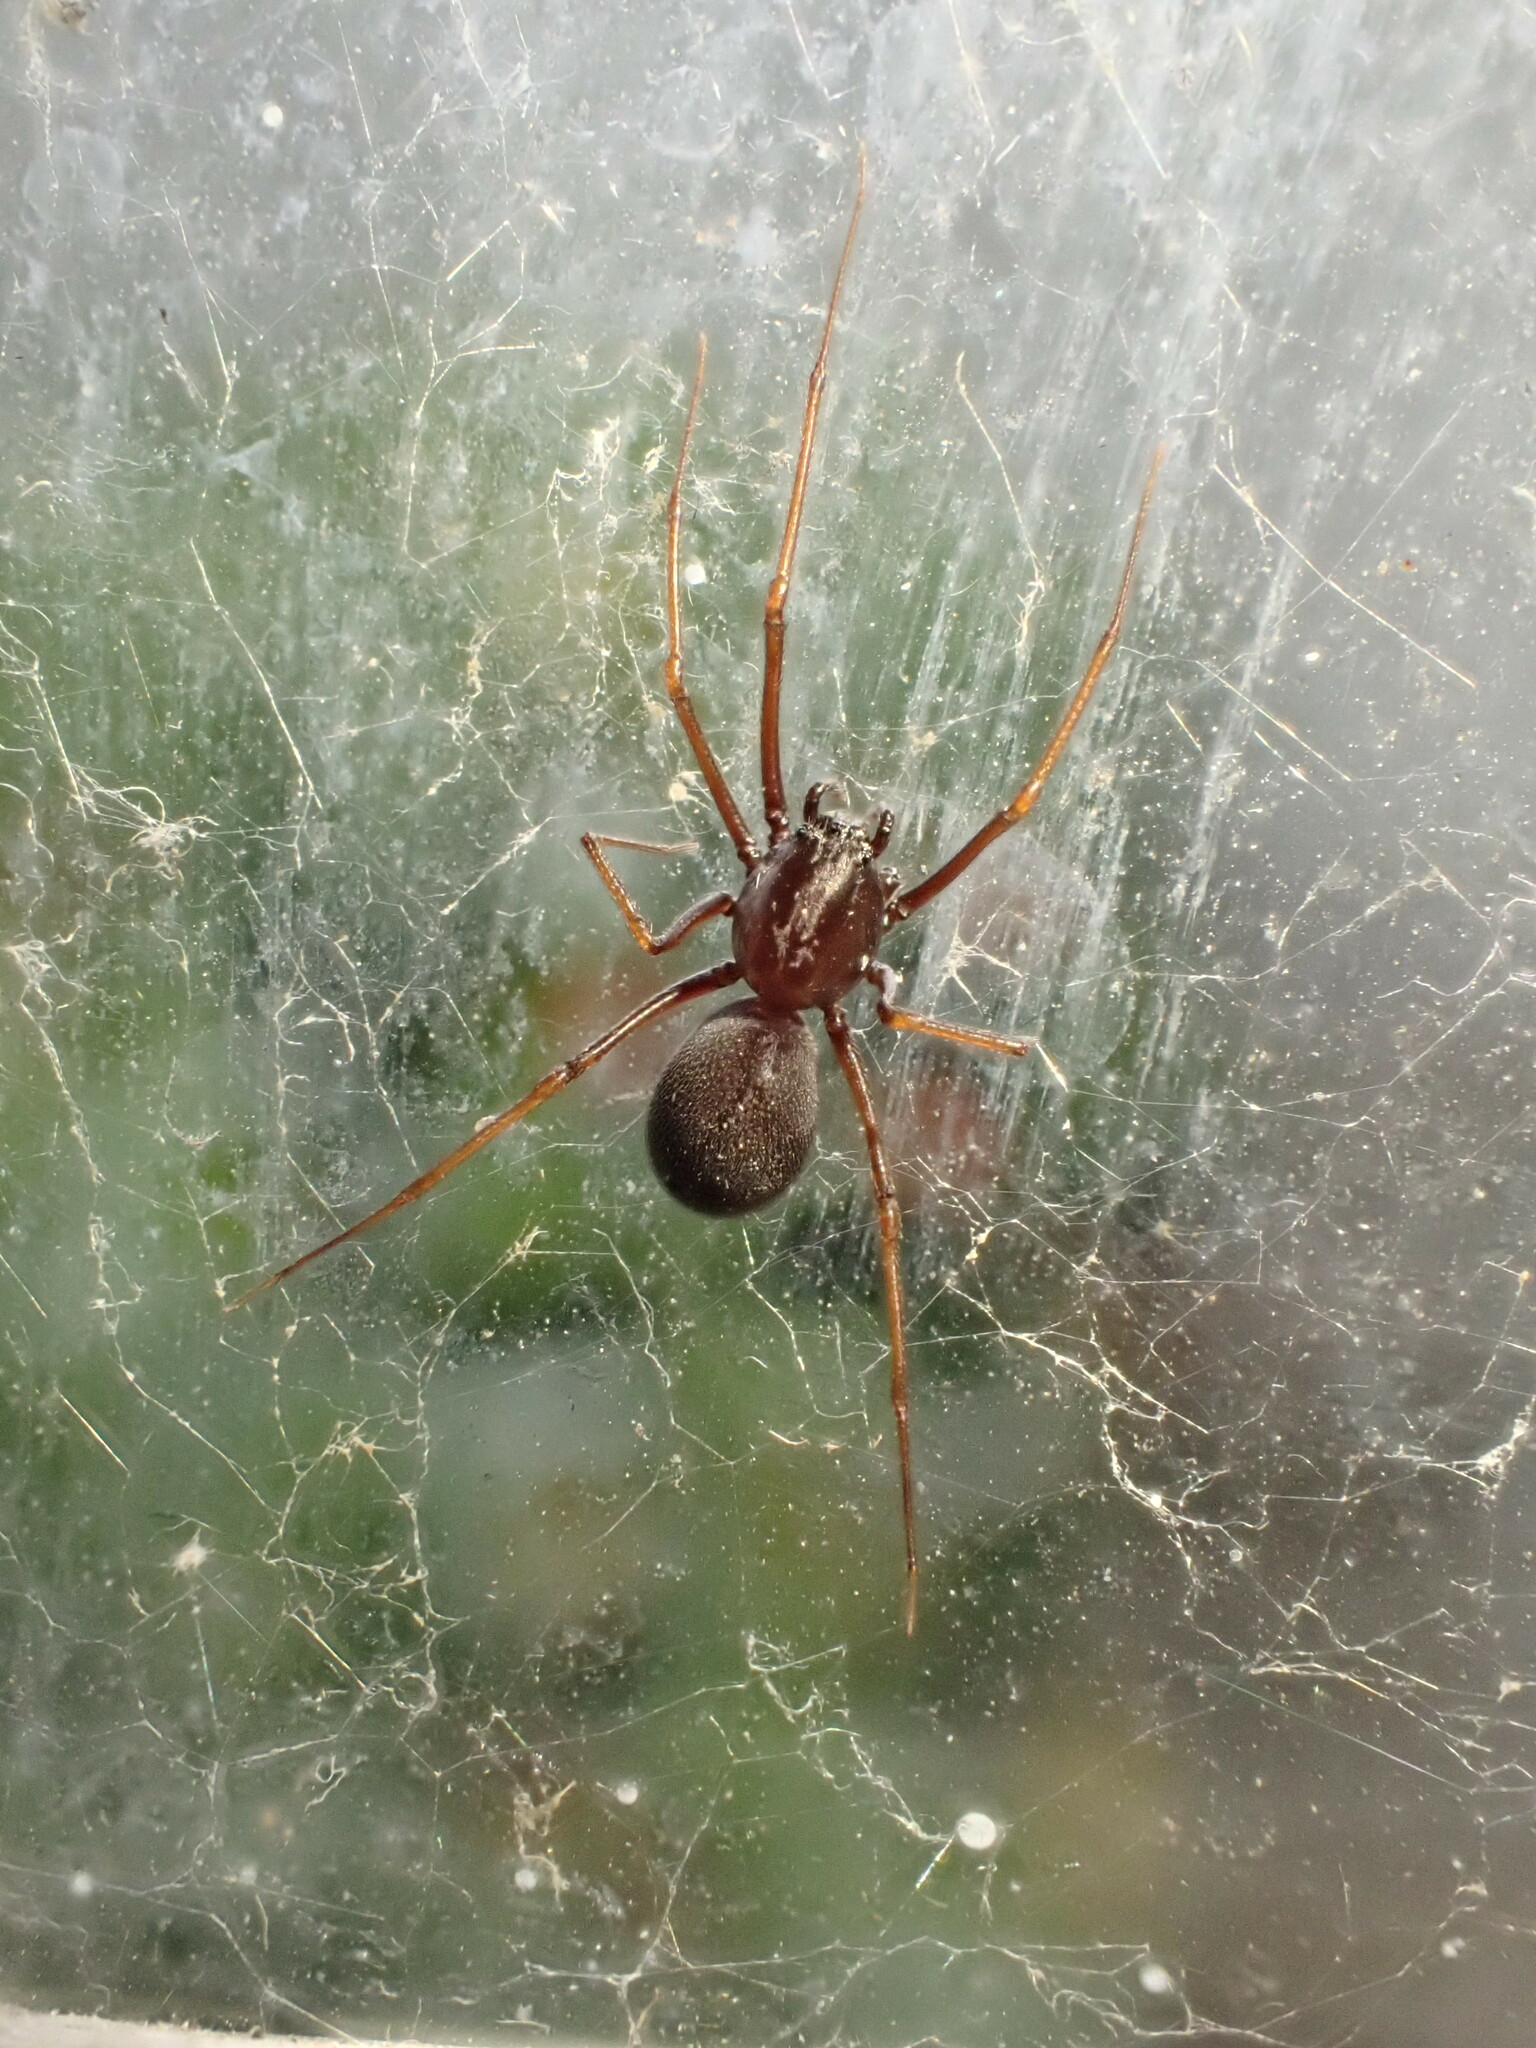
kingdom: Animalia
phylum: Arthropoda
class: Arachnida
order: Araneae
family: Scytodidae
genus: Scytodes
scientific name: Scytodes fusca
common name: Spitting spiders
